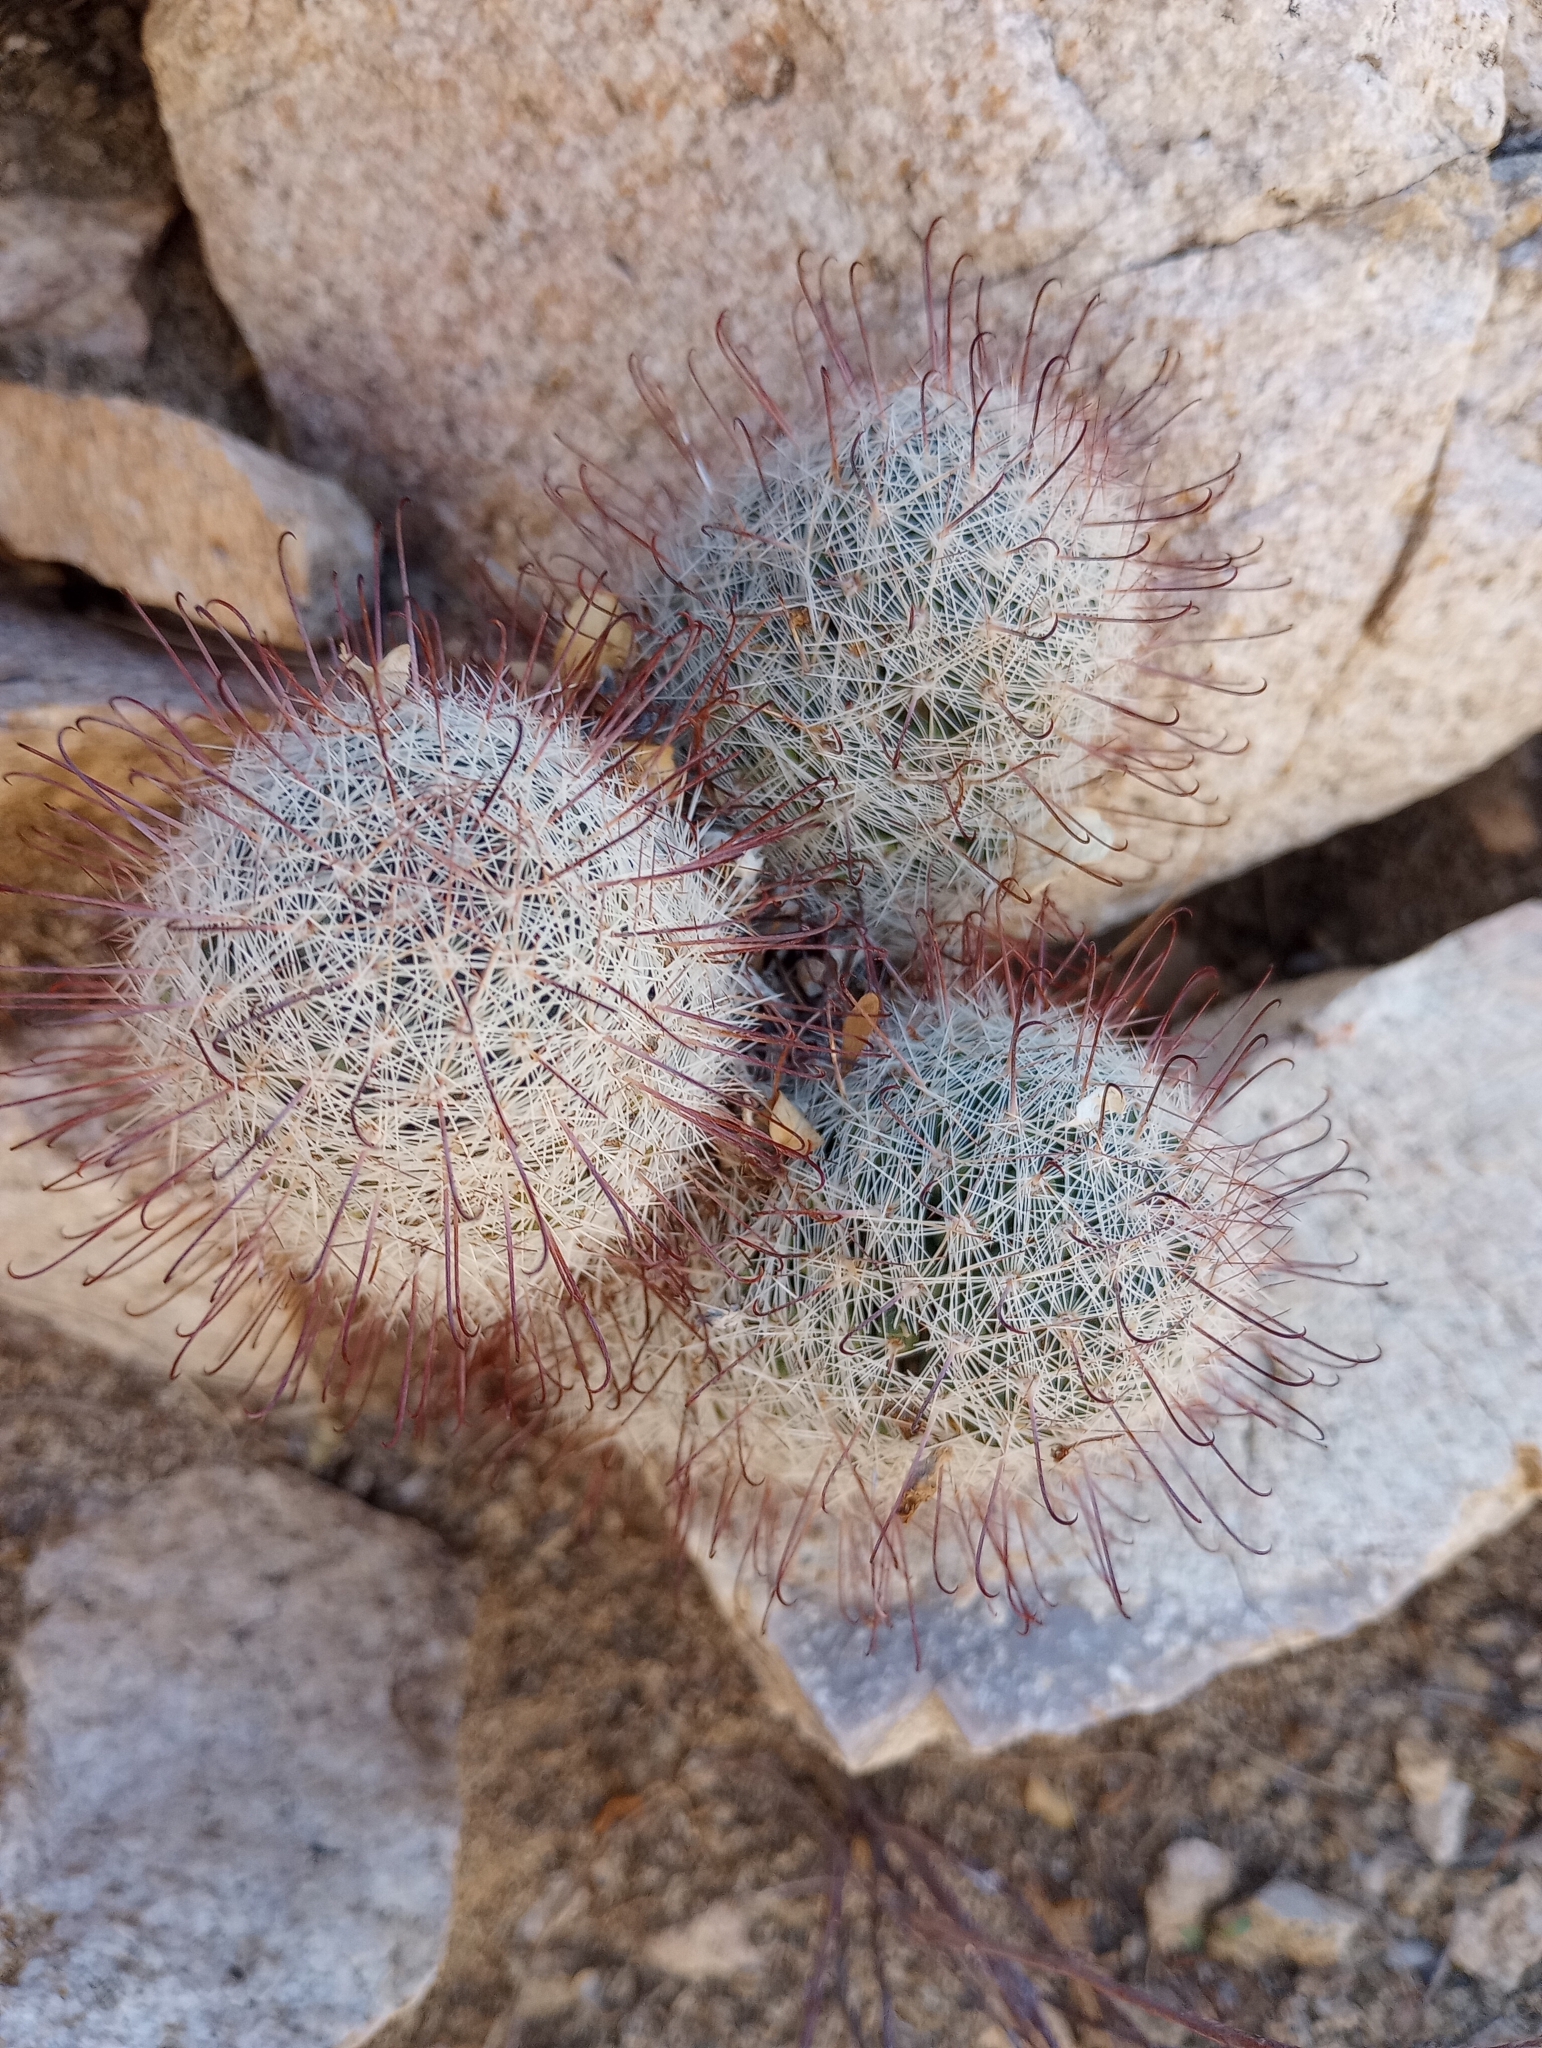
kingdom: Plantae
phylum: Tracheophyta
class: Magnoliopsida
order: Caryophyllales
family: Cactaceae
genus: Cochemiea
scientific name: Cochemiea grahamii
